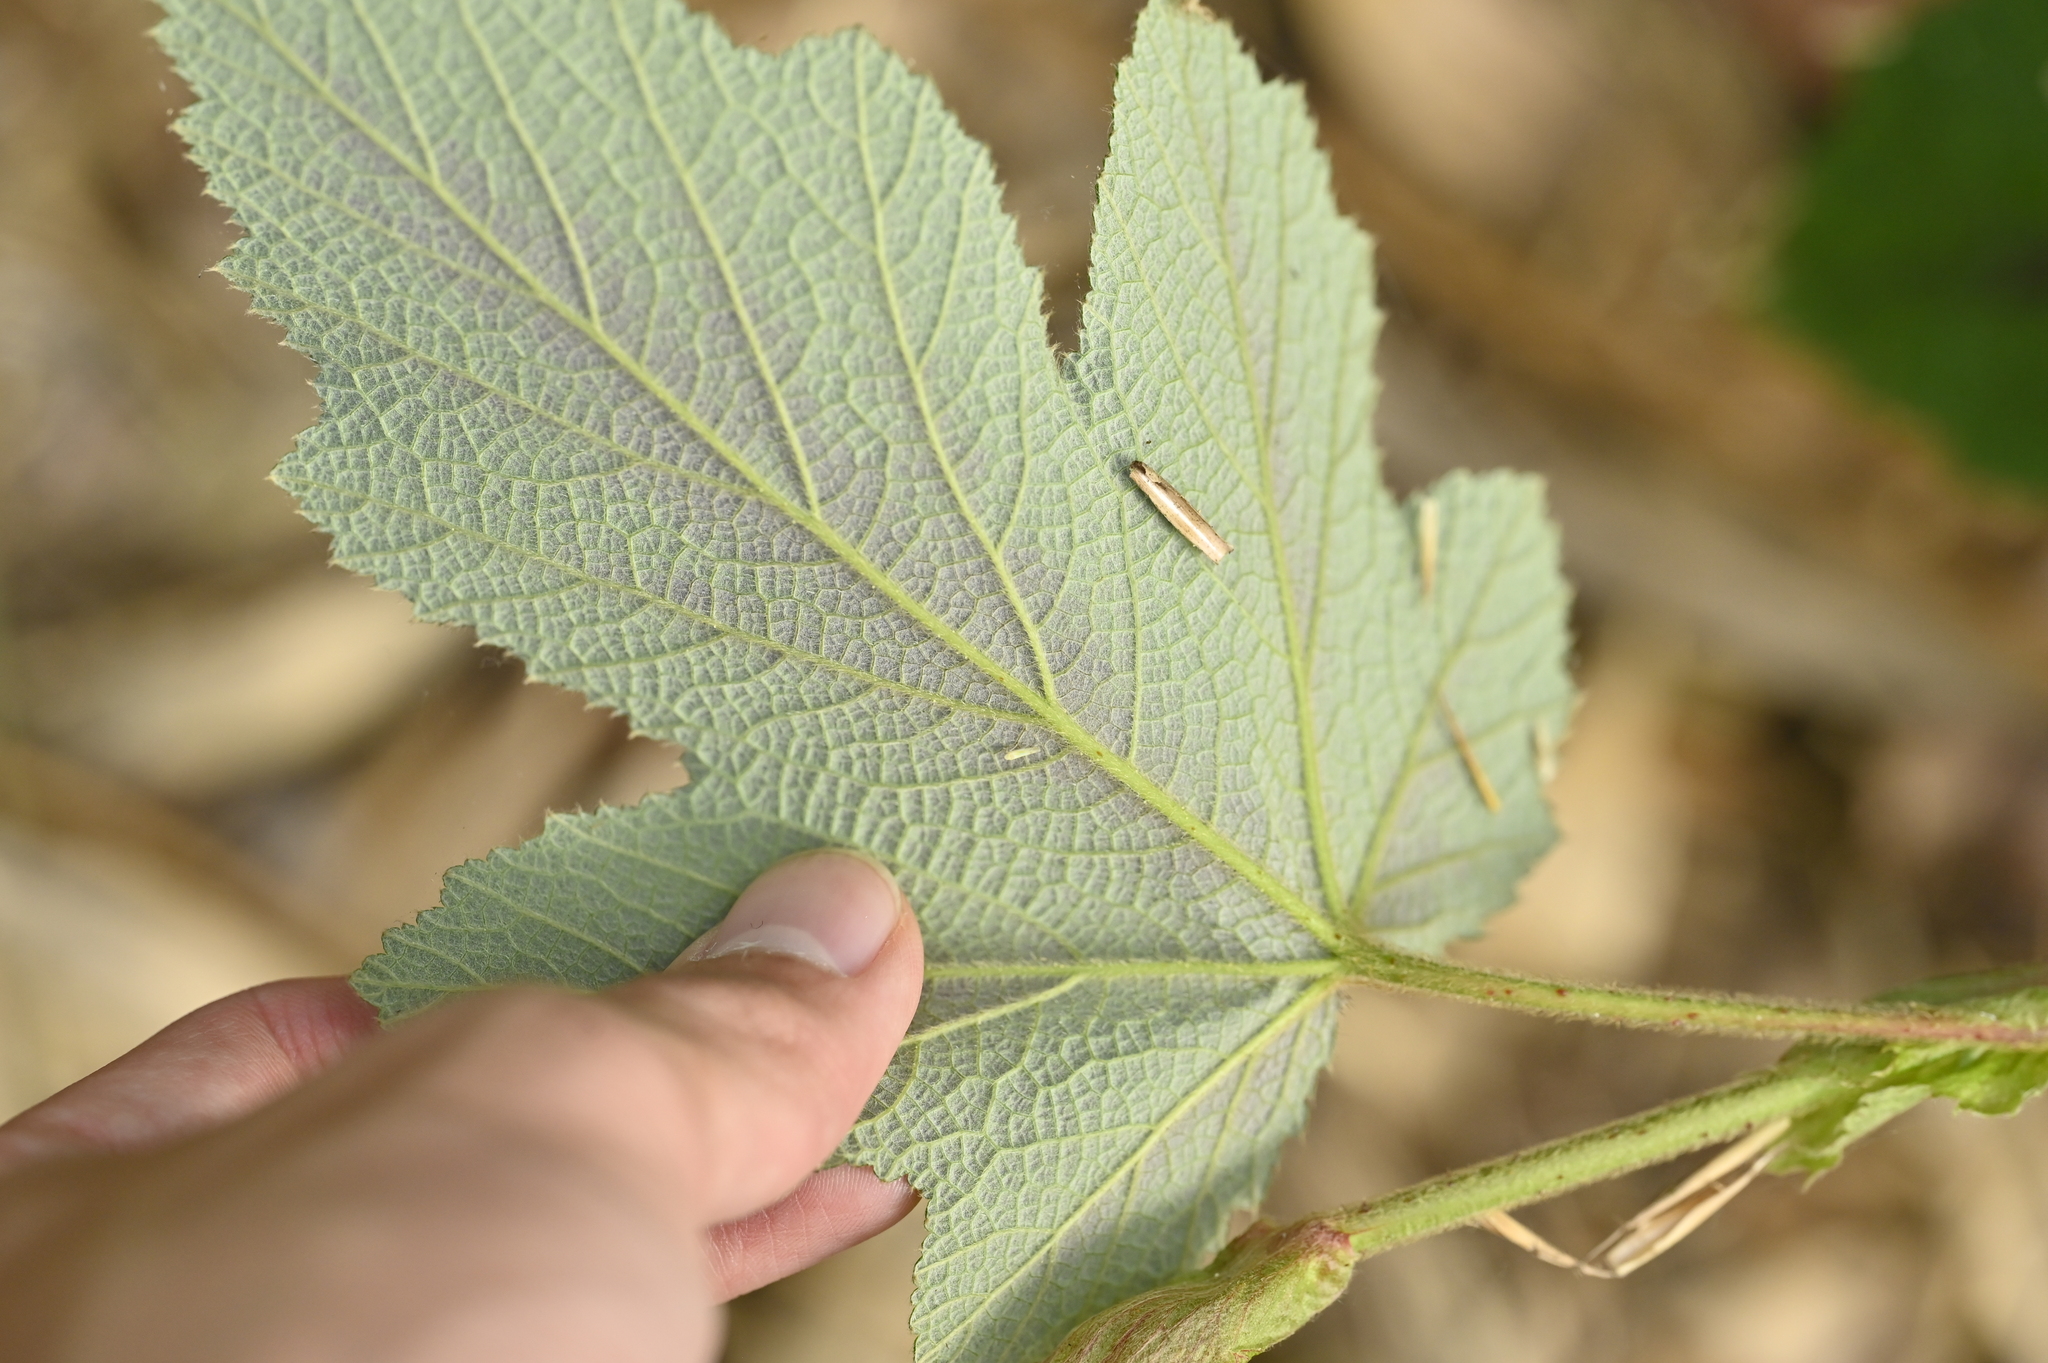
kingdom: Plantae
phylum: Tracheophyta
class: Magnoliopsida
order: Rosales
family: Rosaceae
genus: Rubus
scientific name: Rubus formosensis
